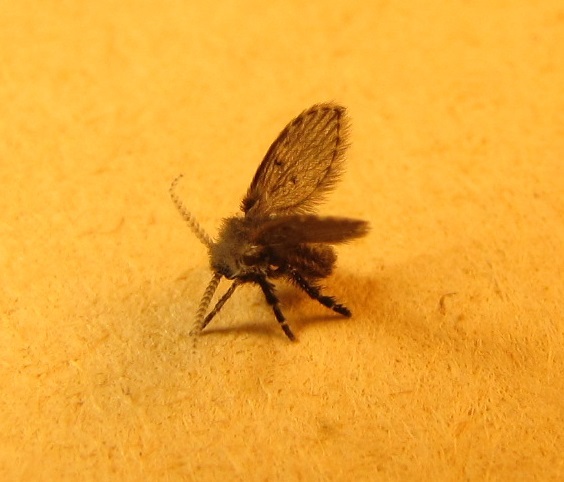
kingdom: Animalia
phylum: Arthropoda
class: Insecta
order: Diptera
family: Psychodidae
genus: Clogmia
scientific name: Clogmia albipunctatus
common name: White-spotted moth fly
